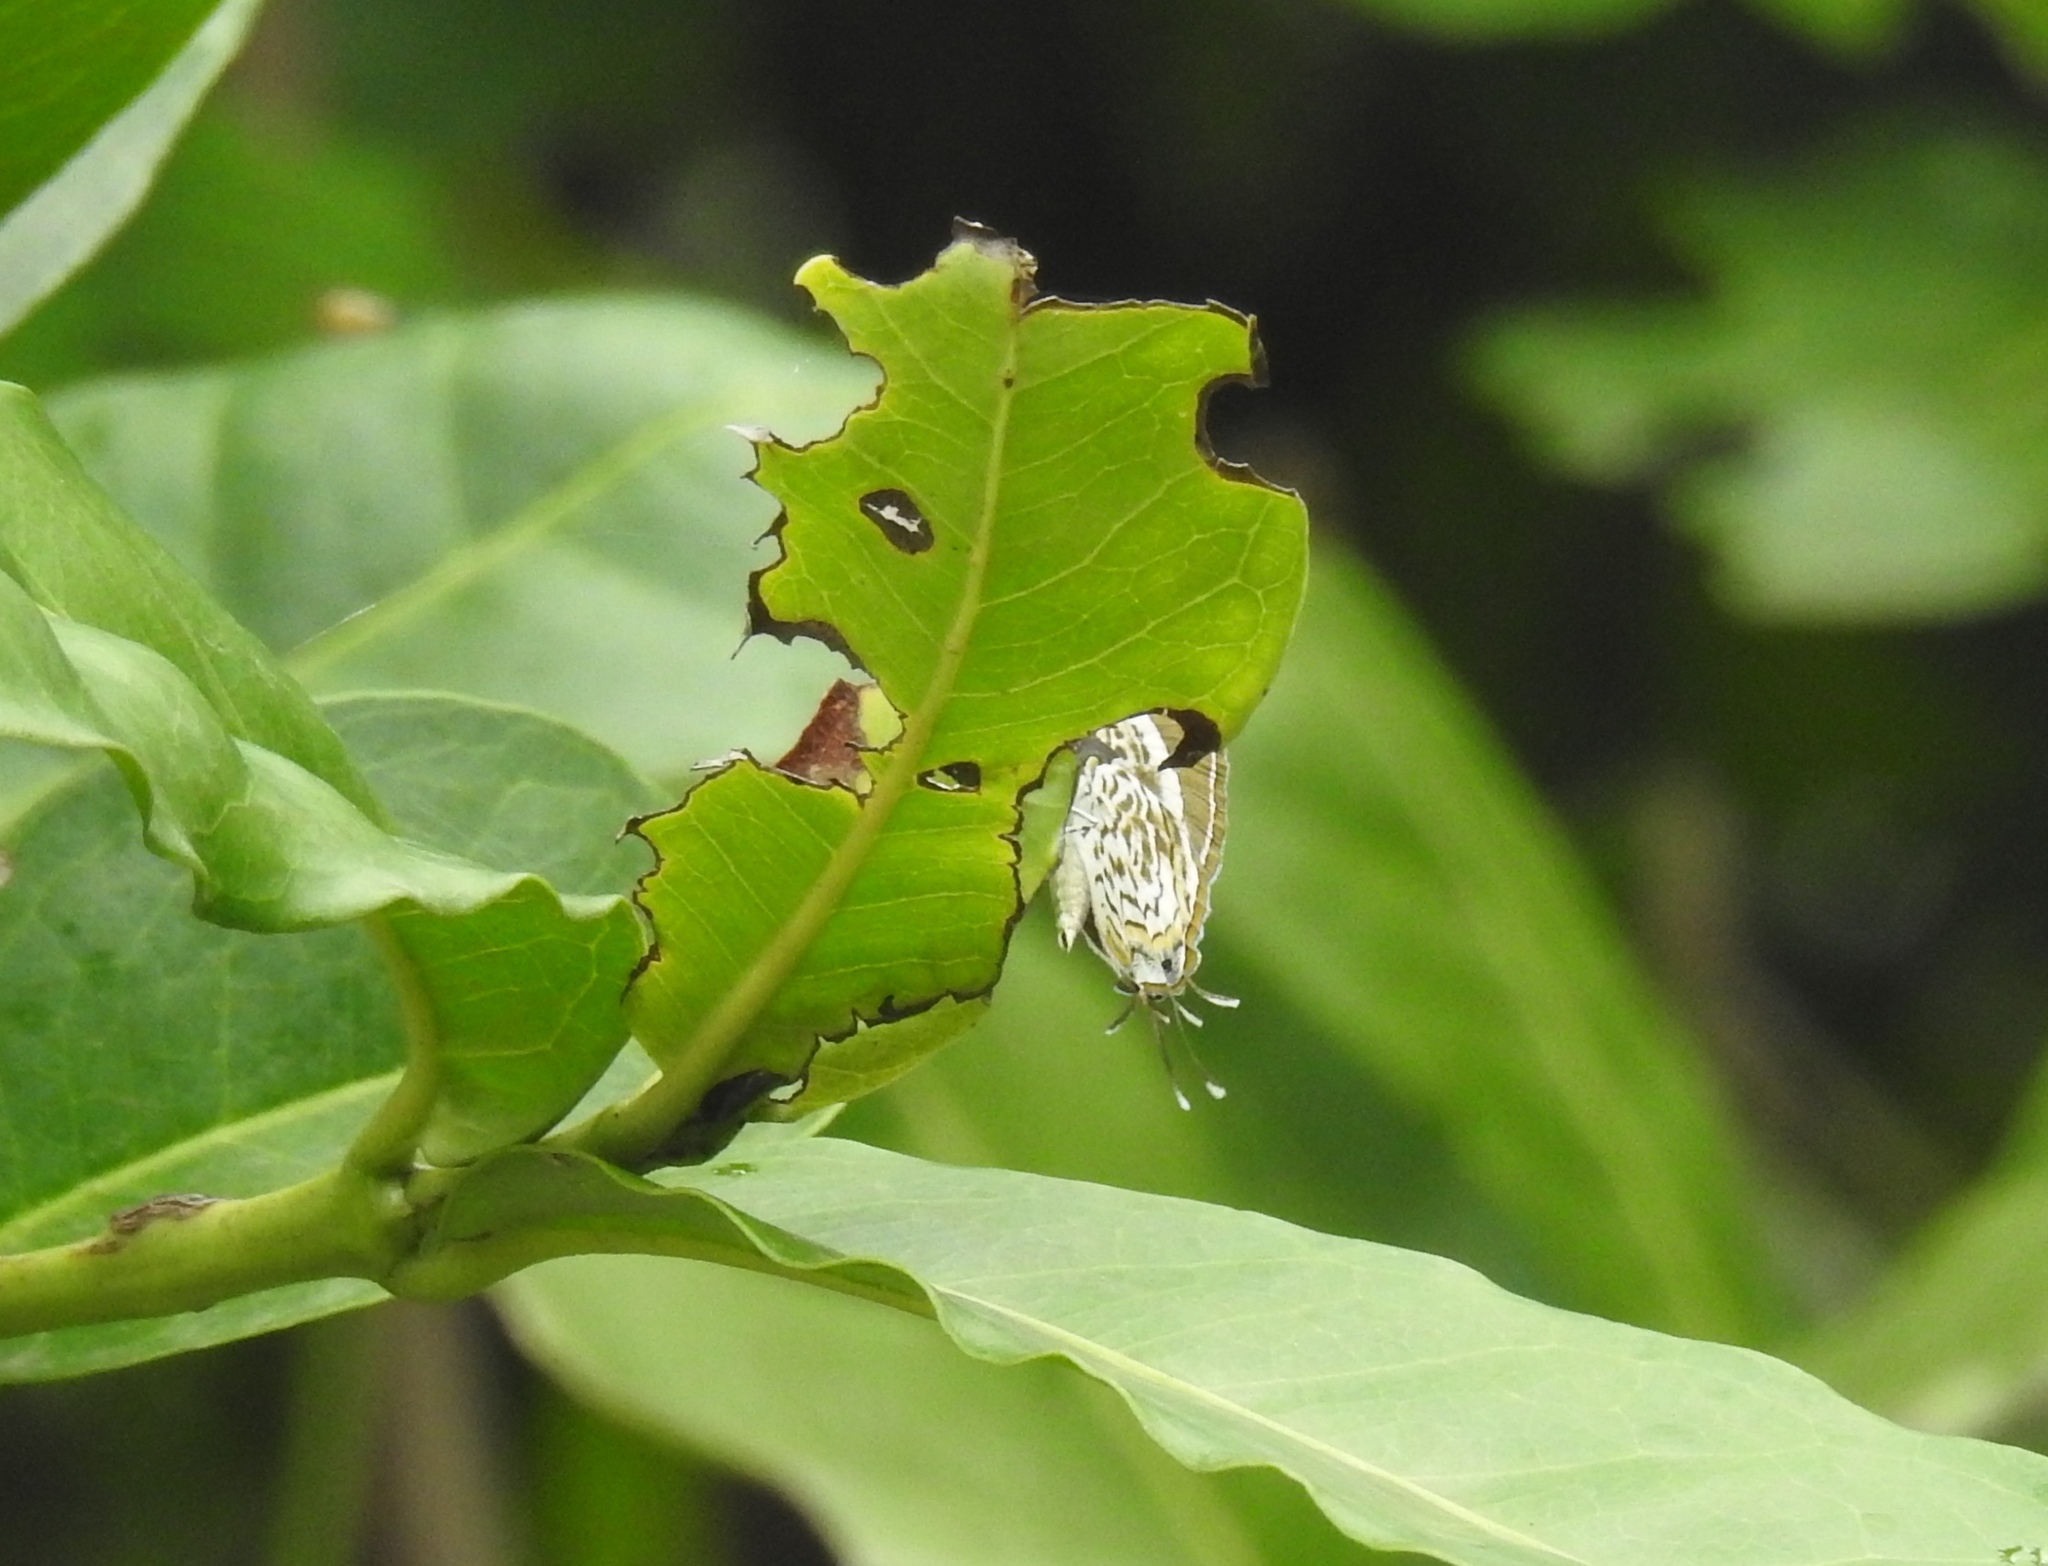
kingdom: Animalia
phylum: Arthropoda
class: Insecta
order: Lepidoptera
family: Lycaenidae
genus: Rathinda
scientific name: Rathinda amor
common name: Monkey puzzle
